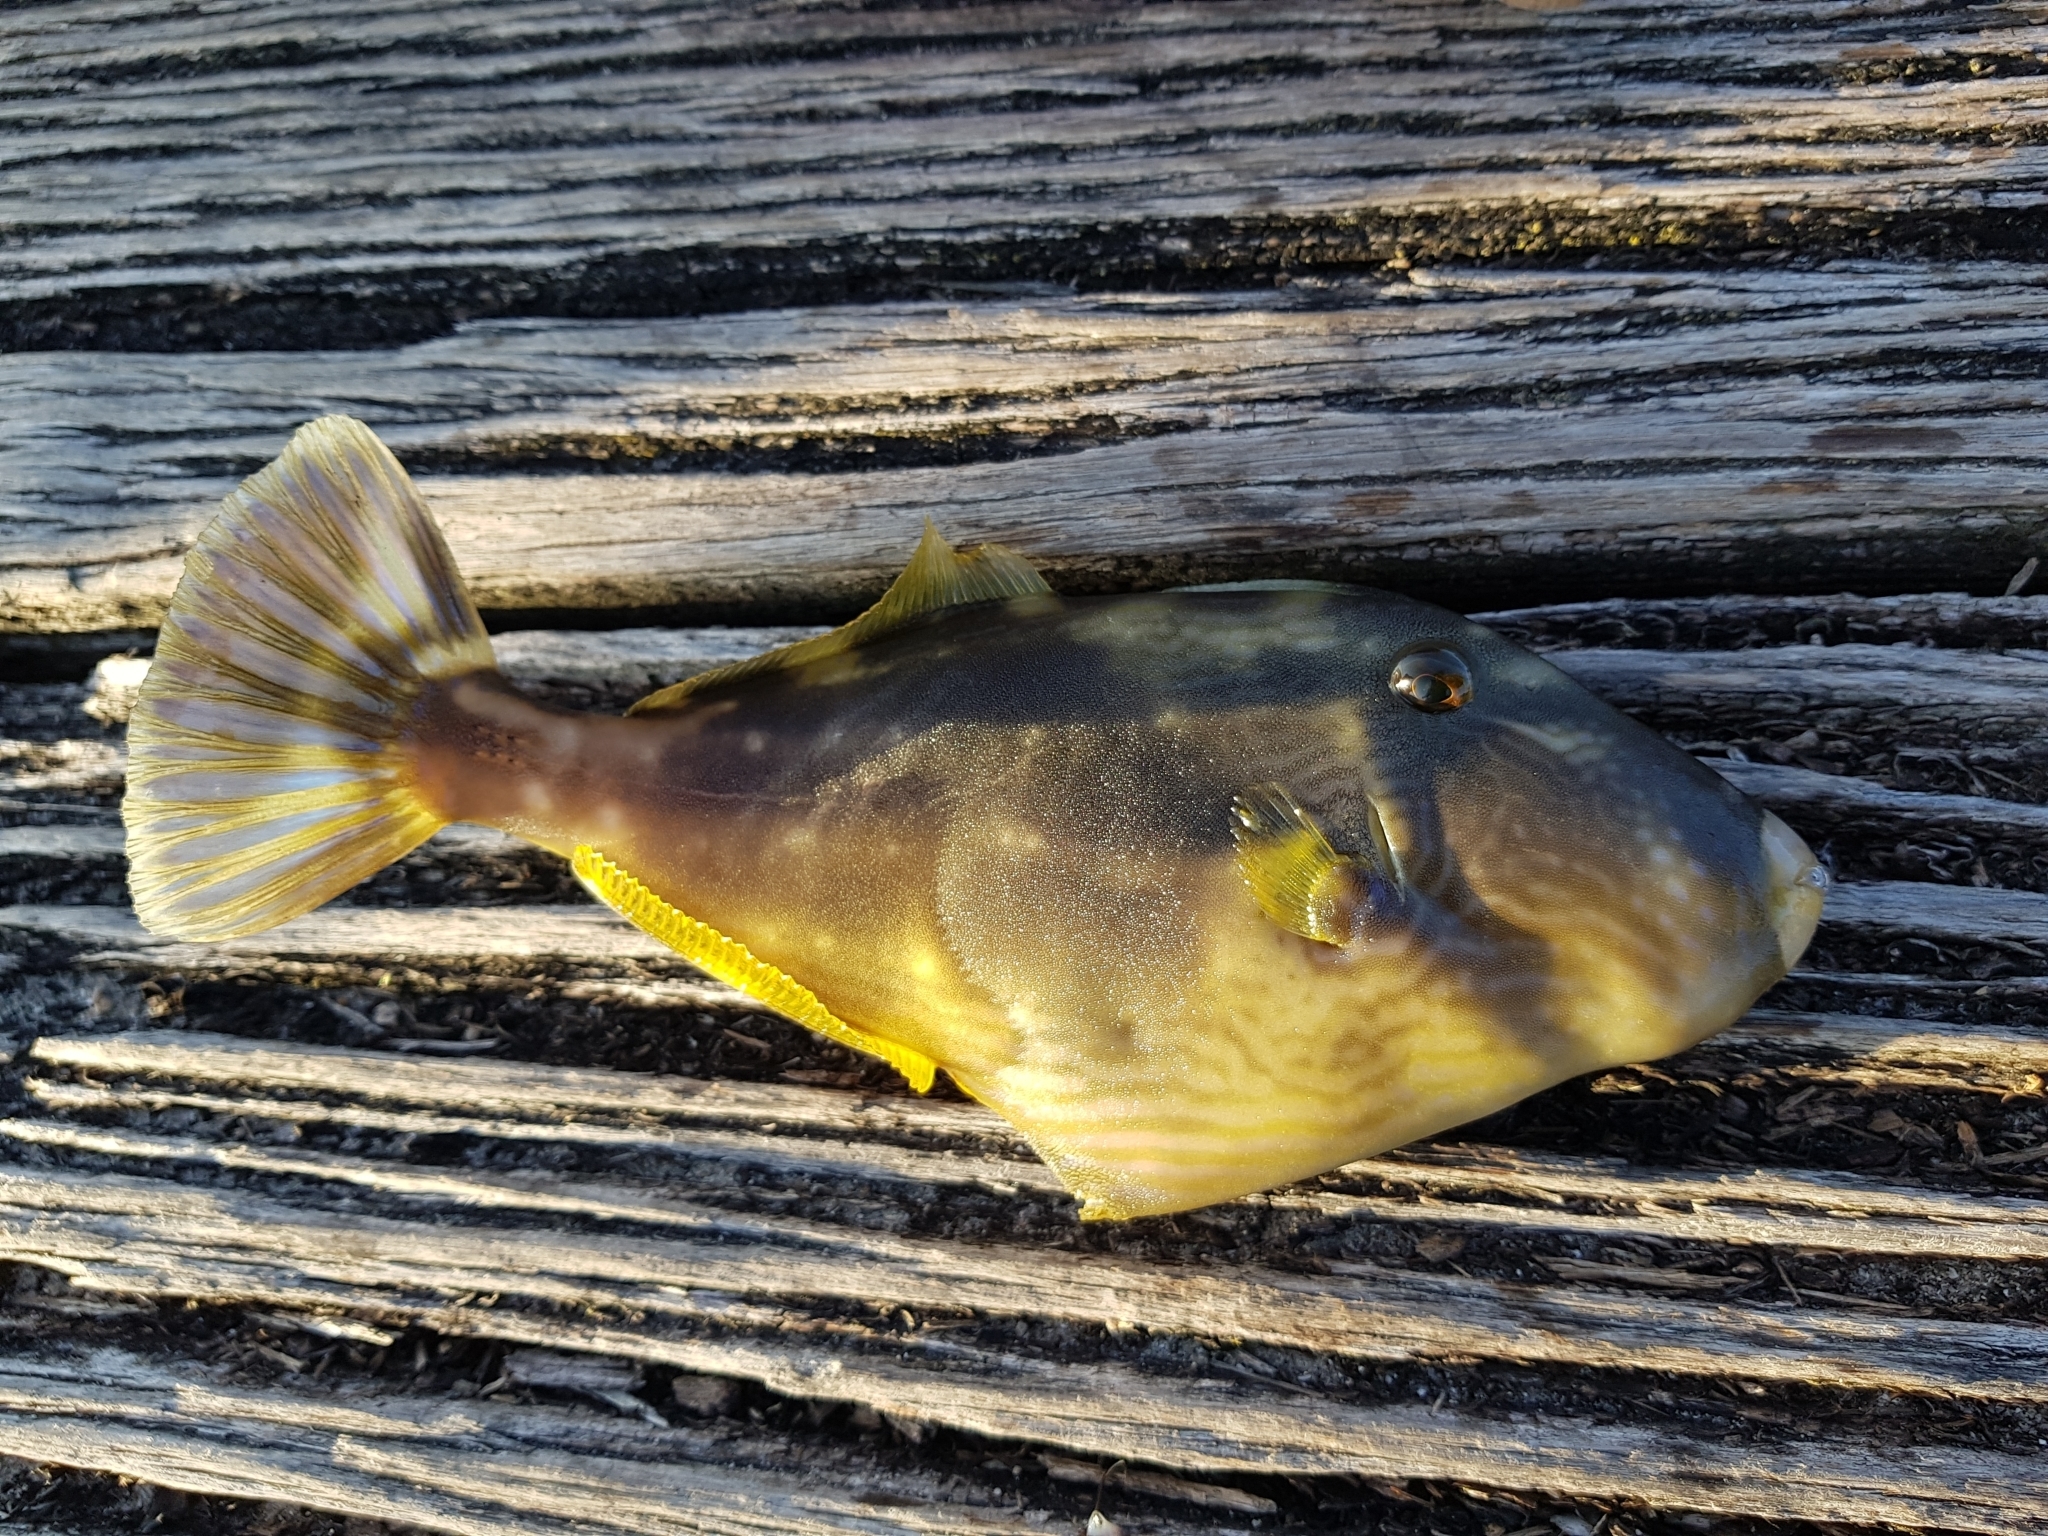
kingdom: Animalia
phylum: Chordata
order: Tetraodontiformes
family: Monacanthidae
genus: Meuschenia
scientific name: Meuschenia freycineti
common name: Freycinet's leatherjacket
